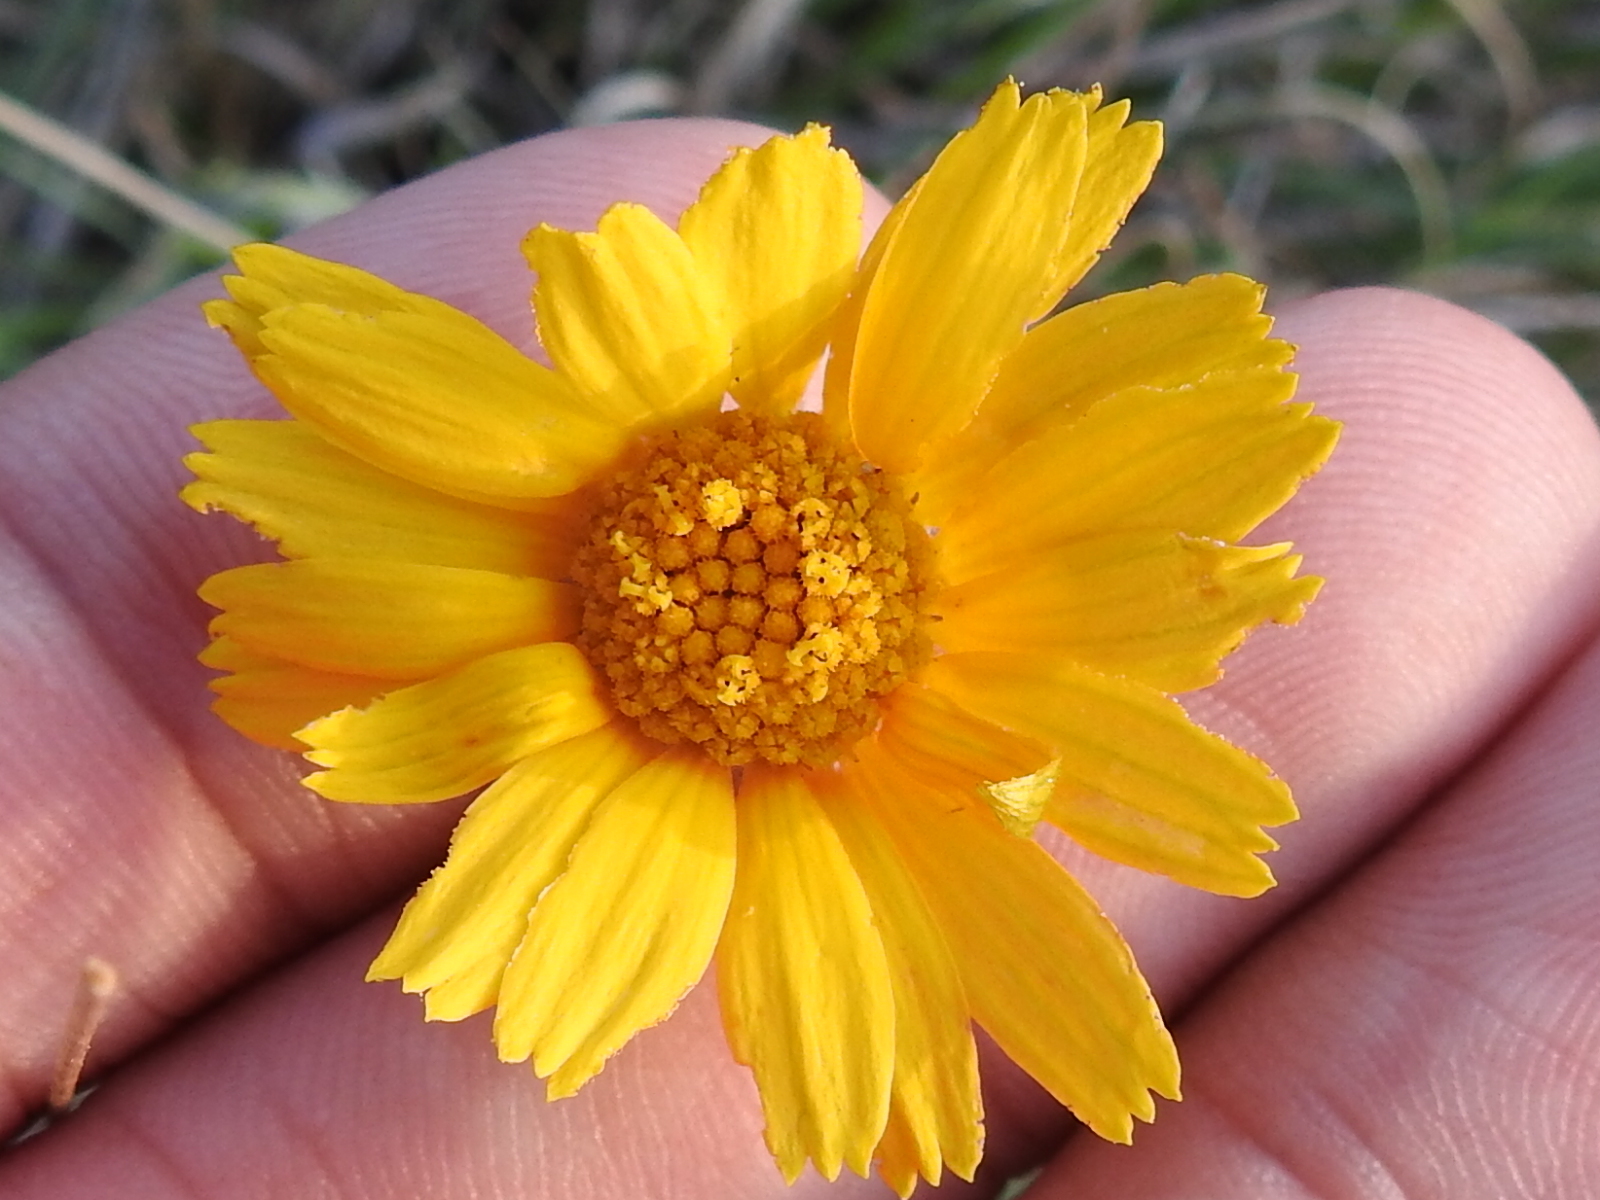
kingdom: Plantae
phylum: Tracheophyta
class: Magnoliopsida
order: Asterales
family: Asteraceae
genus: Tetraneuris
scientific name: Tetraneuris scaposa
